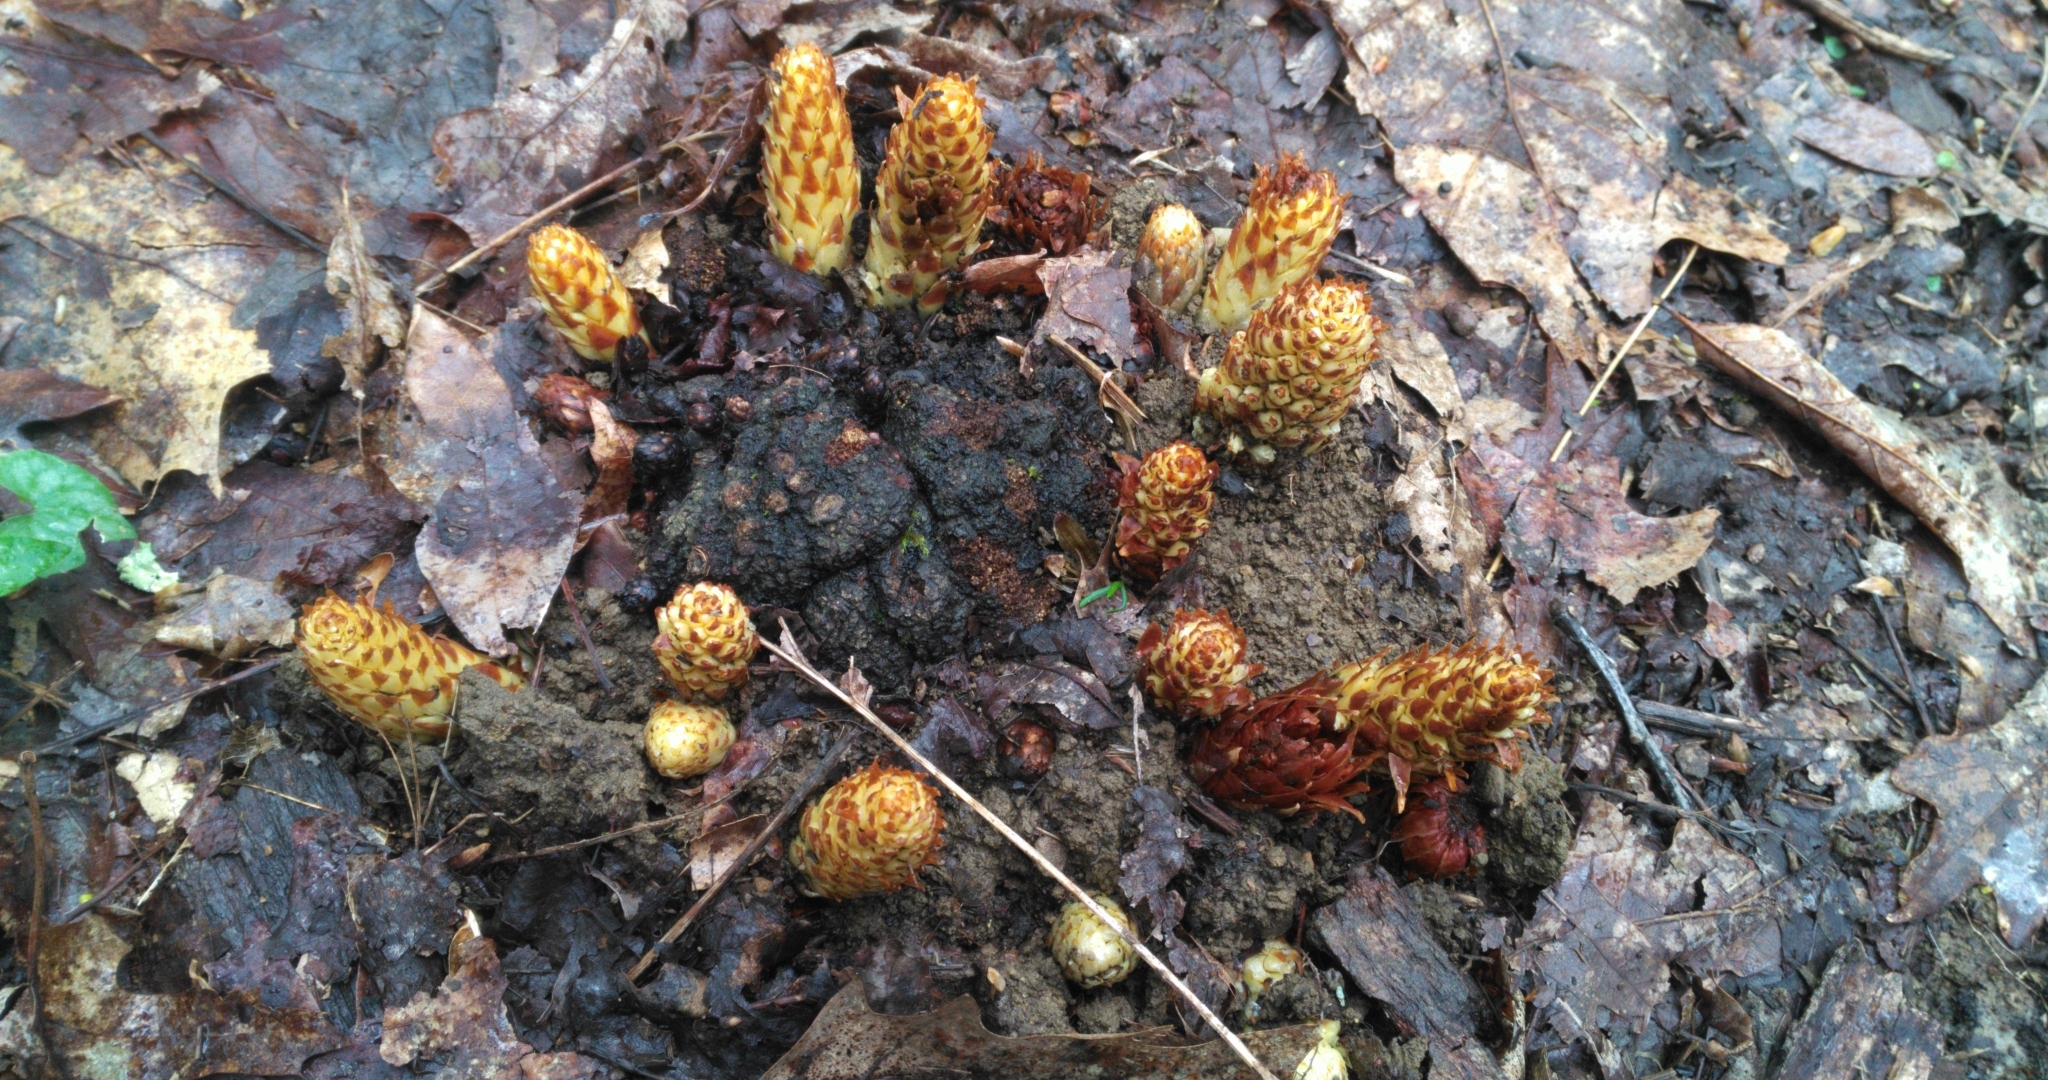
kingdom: Plantae
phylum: Tracheophyta
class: Magnoliopsida
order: Lamiales
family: Orobanchaceae
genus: Conopholis
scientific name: Conopholis americana
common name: American cancer-root
